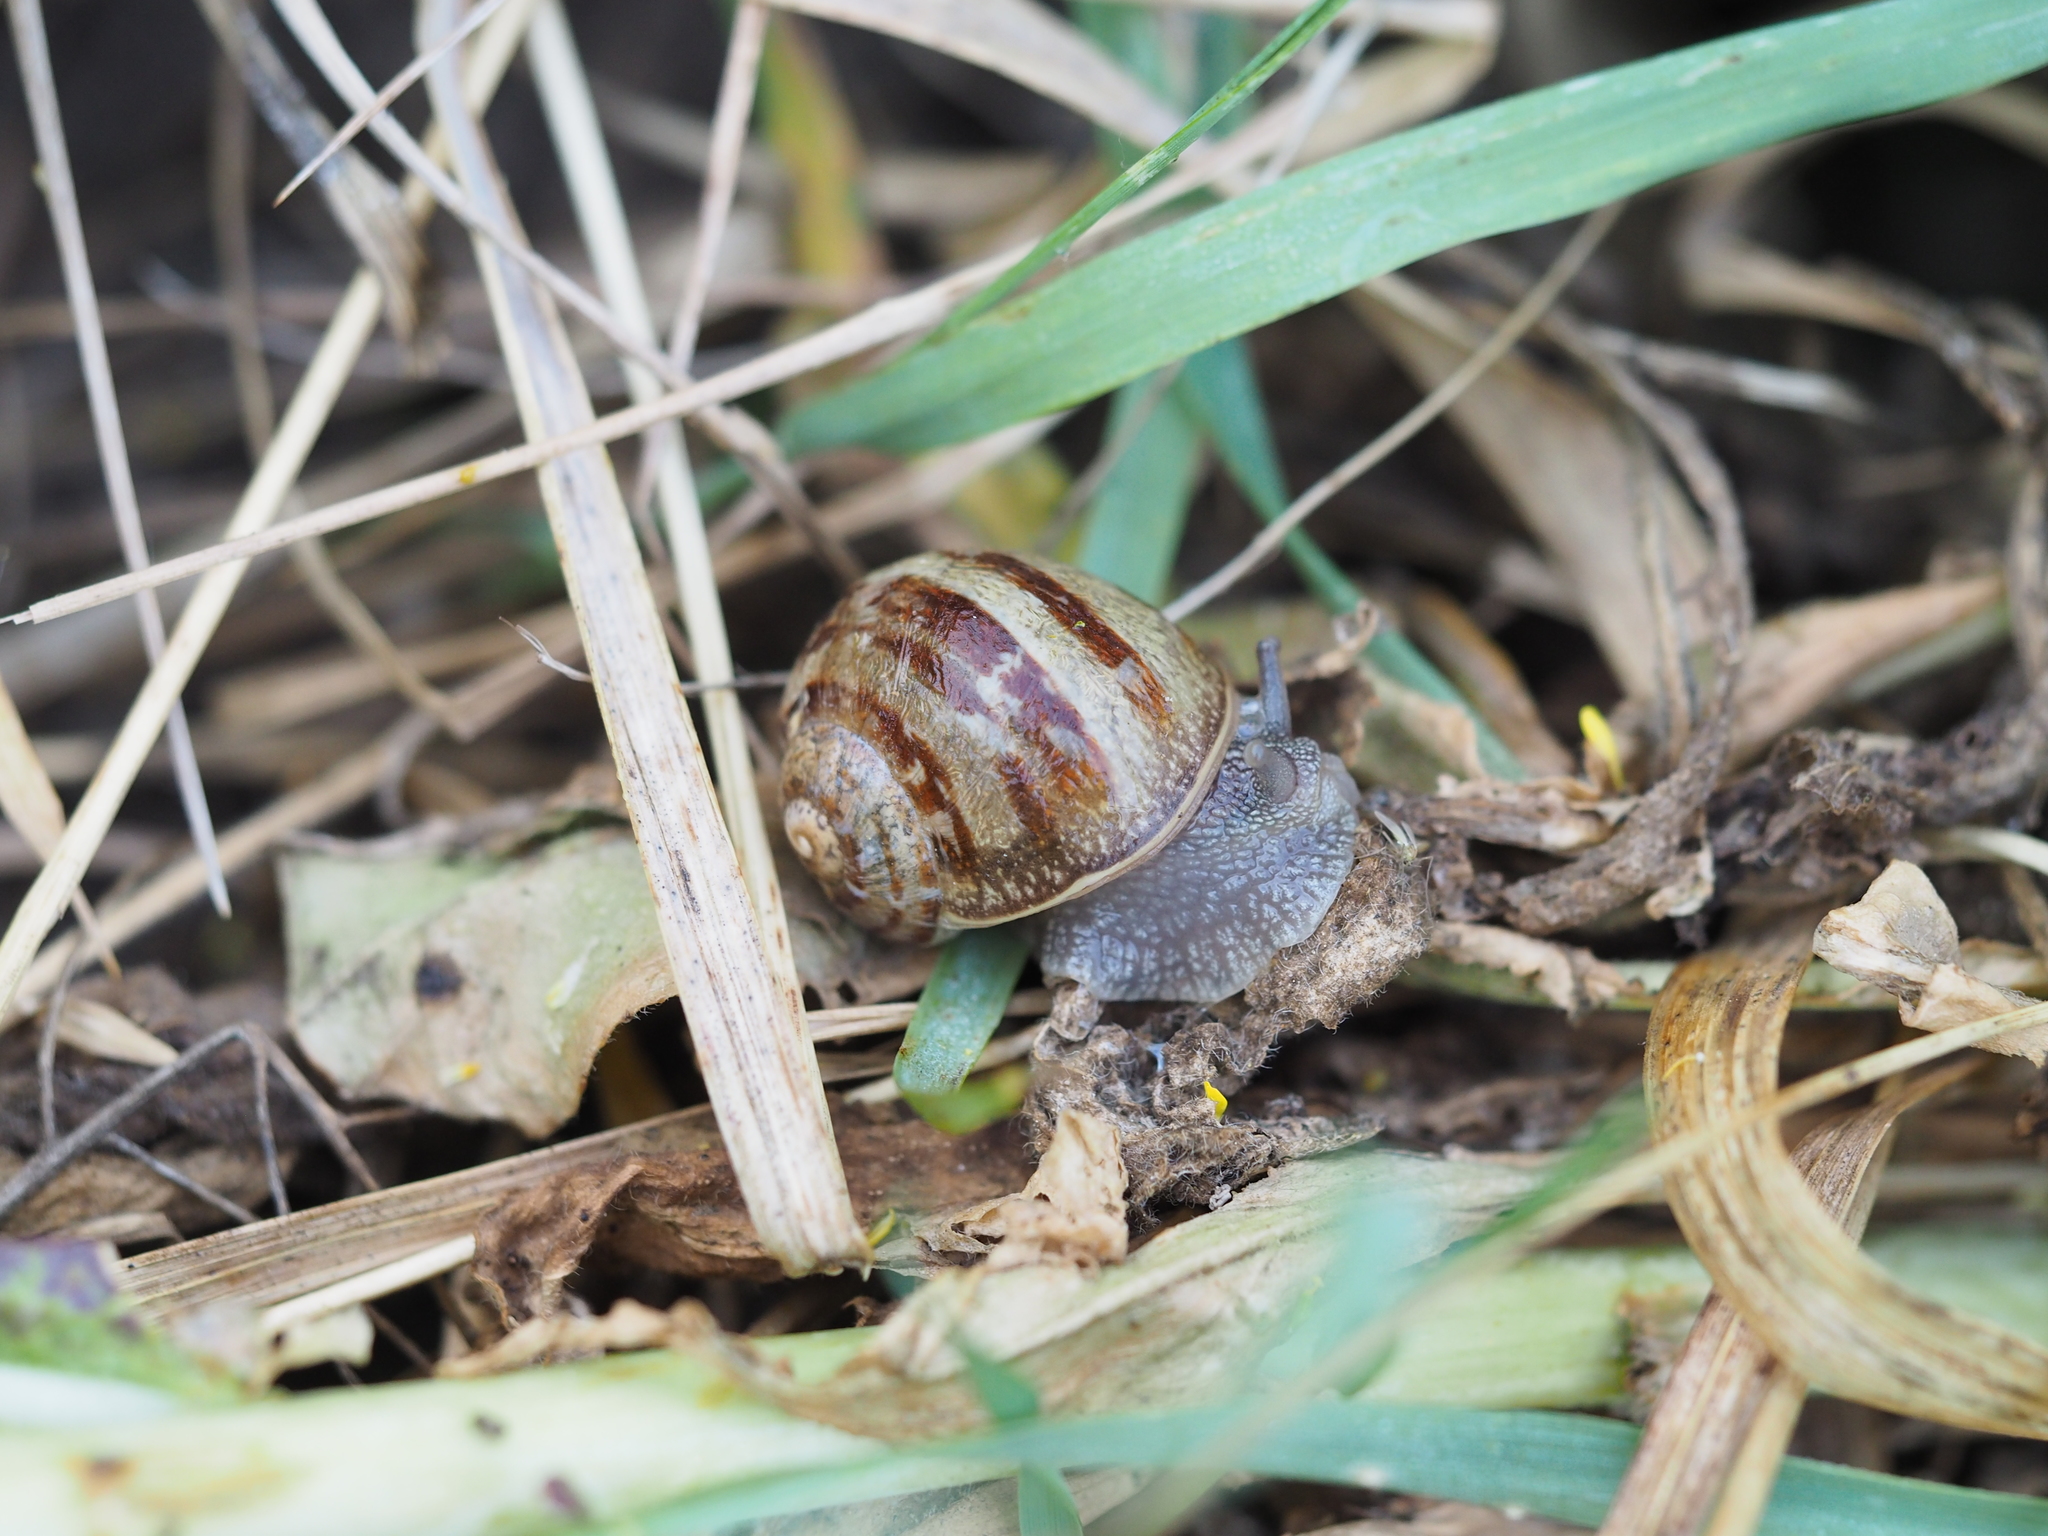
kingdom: Animalia
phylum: Mollusca
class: Gastropoda
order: Stylommatophora
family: Helicidae
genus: Cornu
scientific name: Cornu aspersum
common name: Brown garden snail
